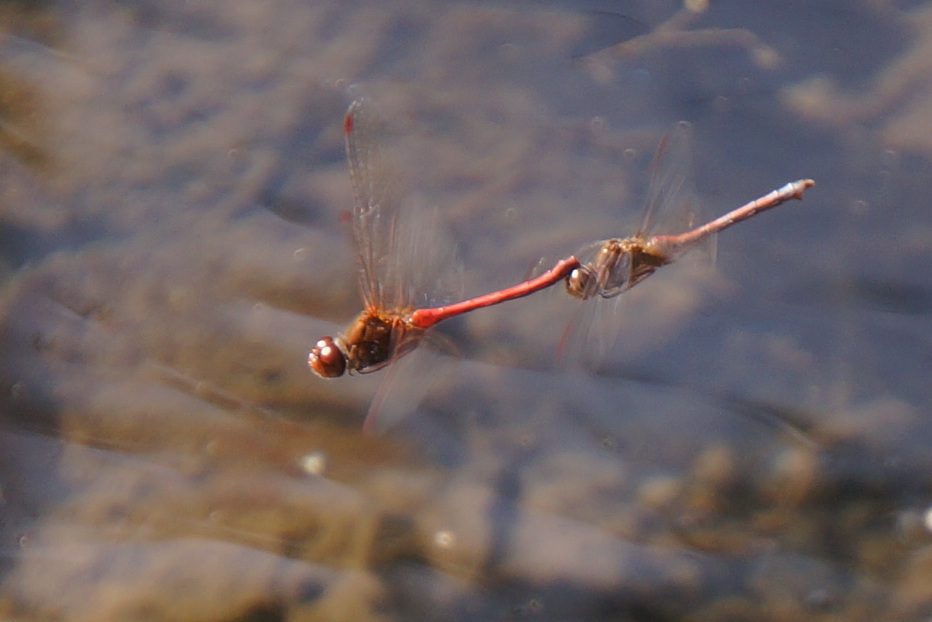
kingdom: Animalia
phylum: Arthropoda
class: Insecta
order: Odonata
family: Libellulidae
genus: Sympetrum
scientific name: Sympetrum vicinum
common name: Autumn meadowhawk
